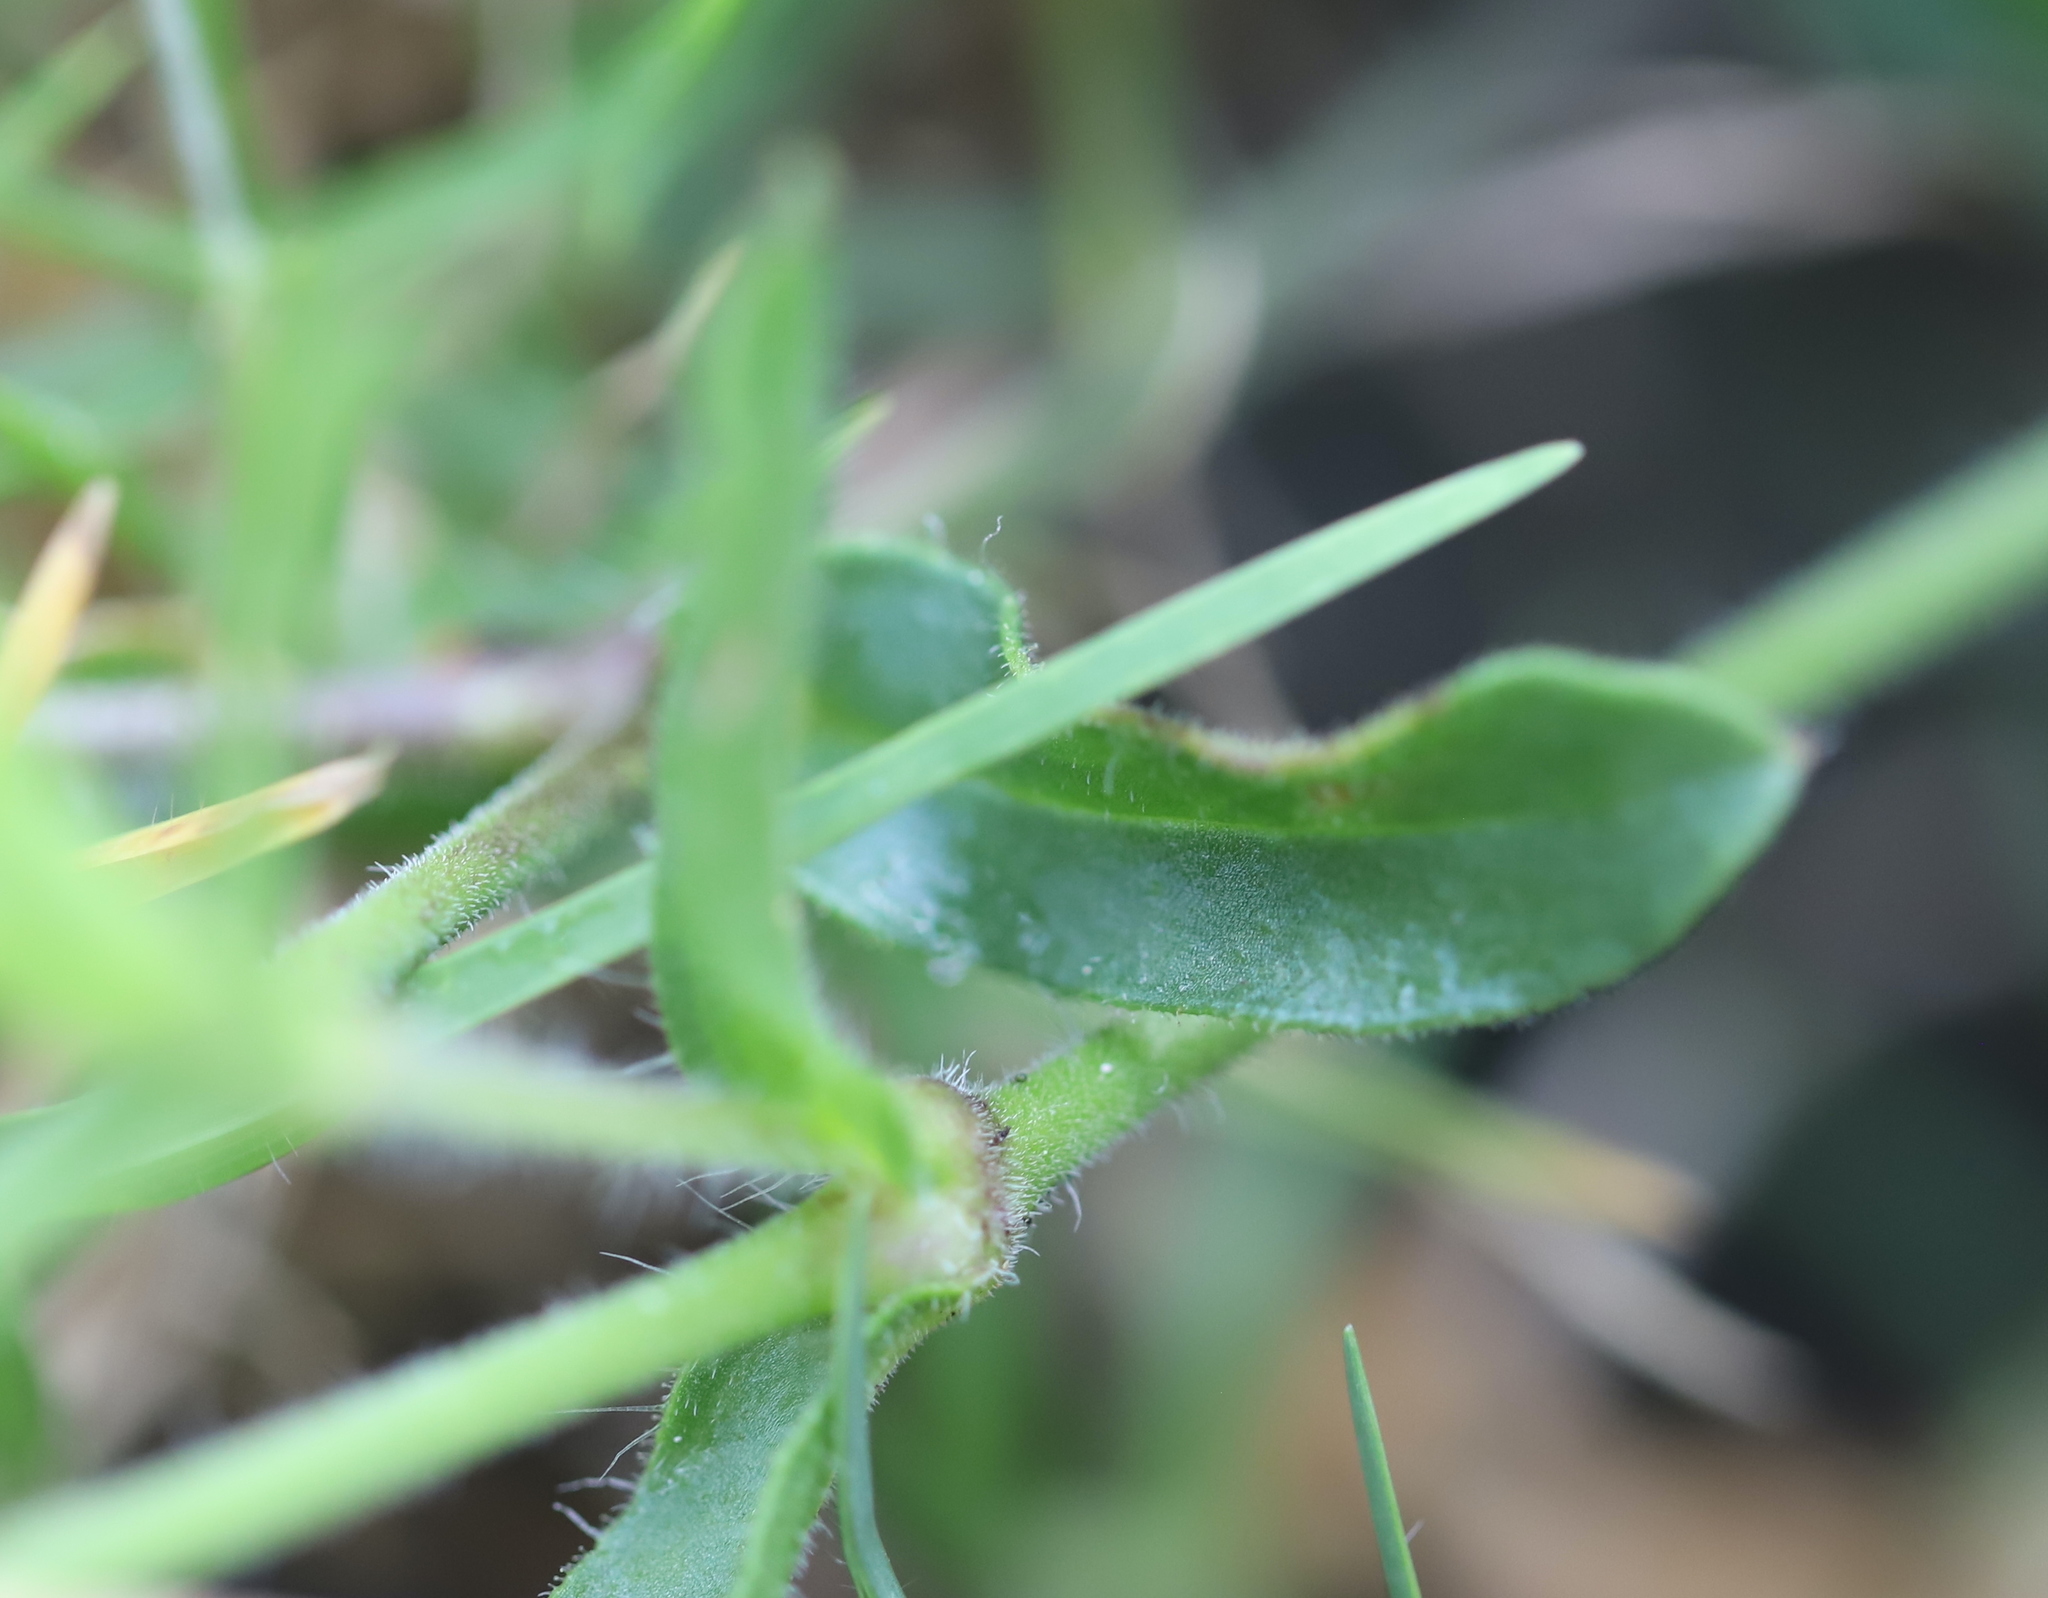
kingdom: Plantae
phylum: Tracheophyta
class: Magnoliopsida
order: Caryophyllales
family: Caryophyllaceae
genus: Silene
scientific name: Silene gallica
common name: Small-flowered catchfly
